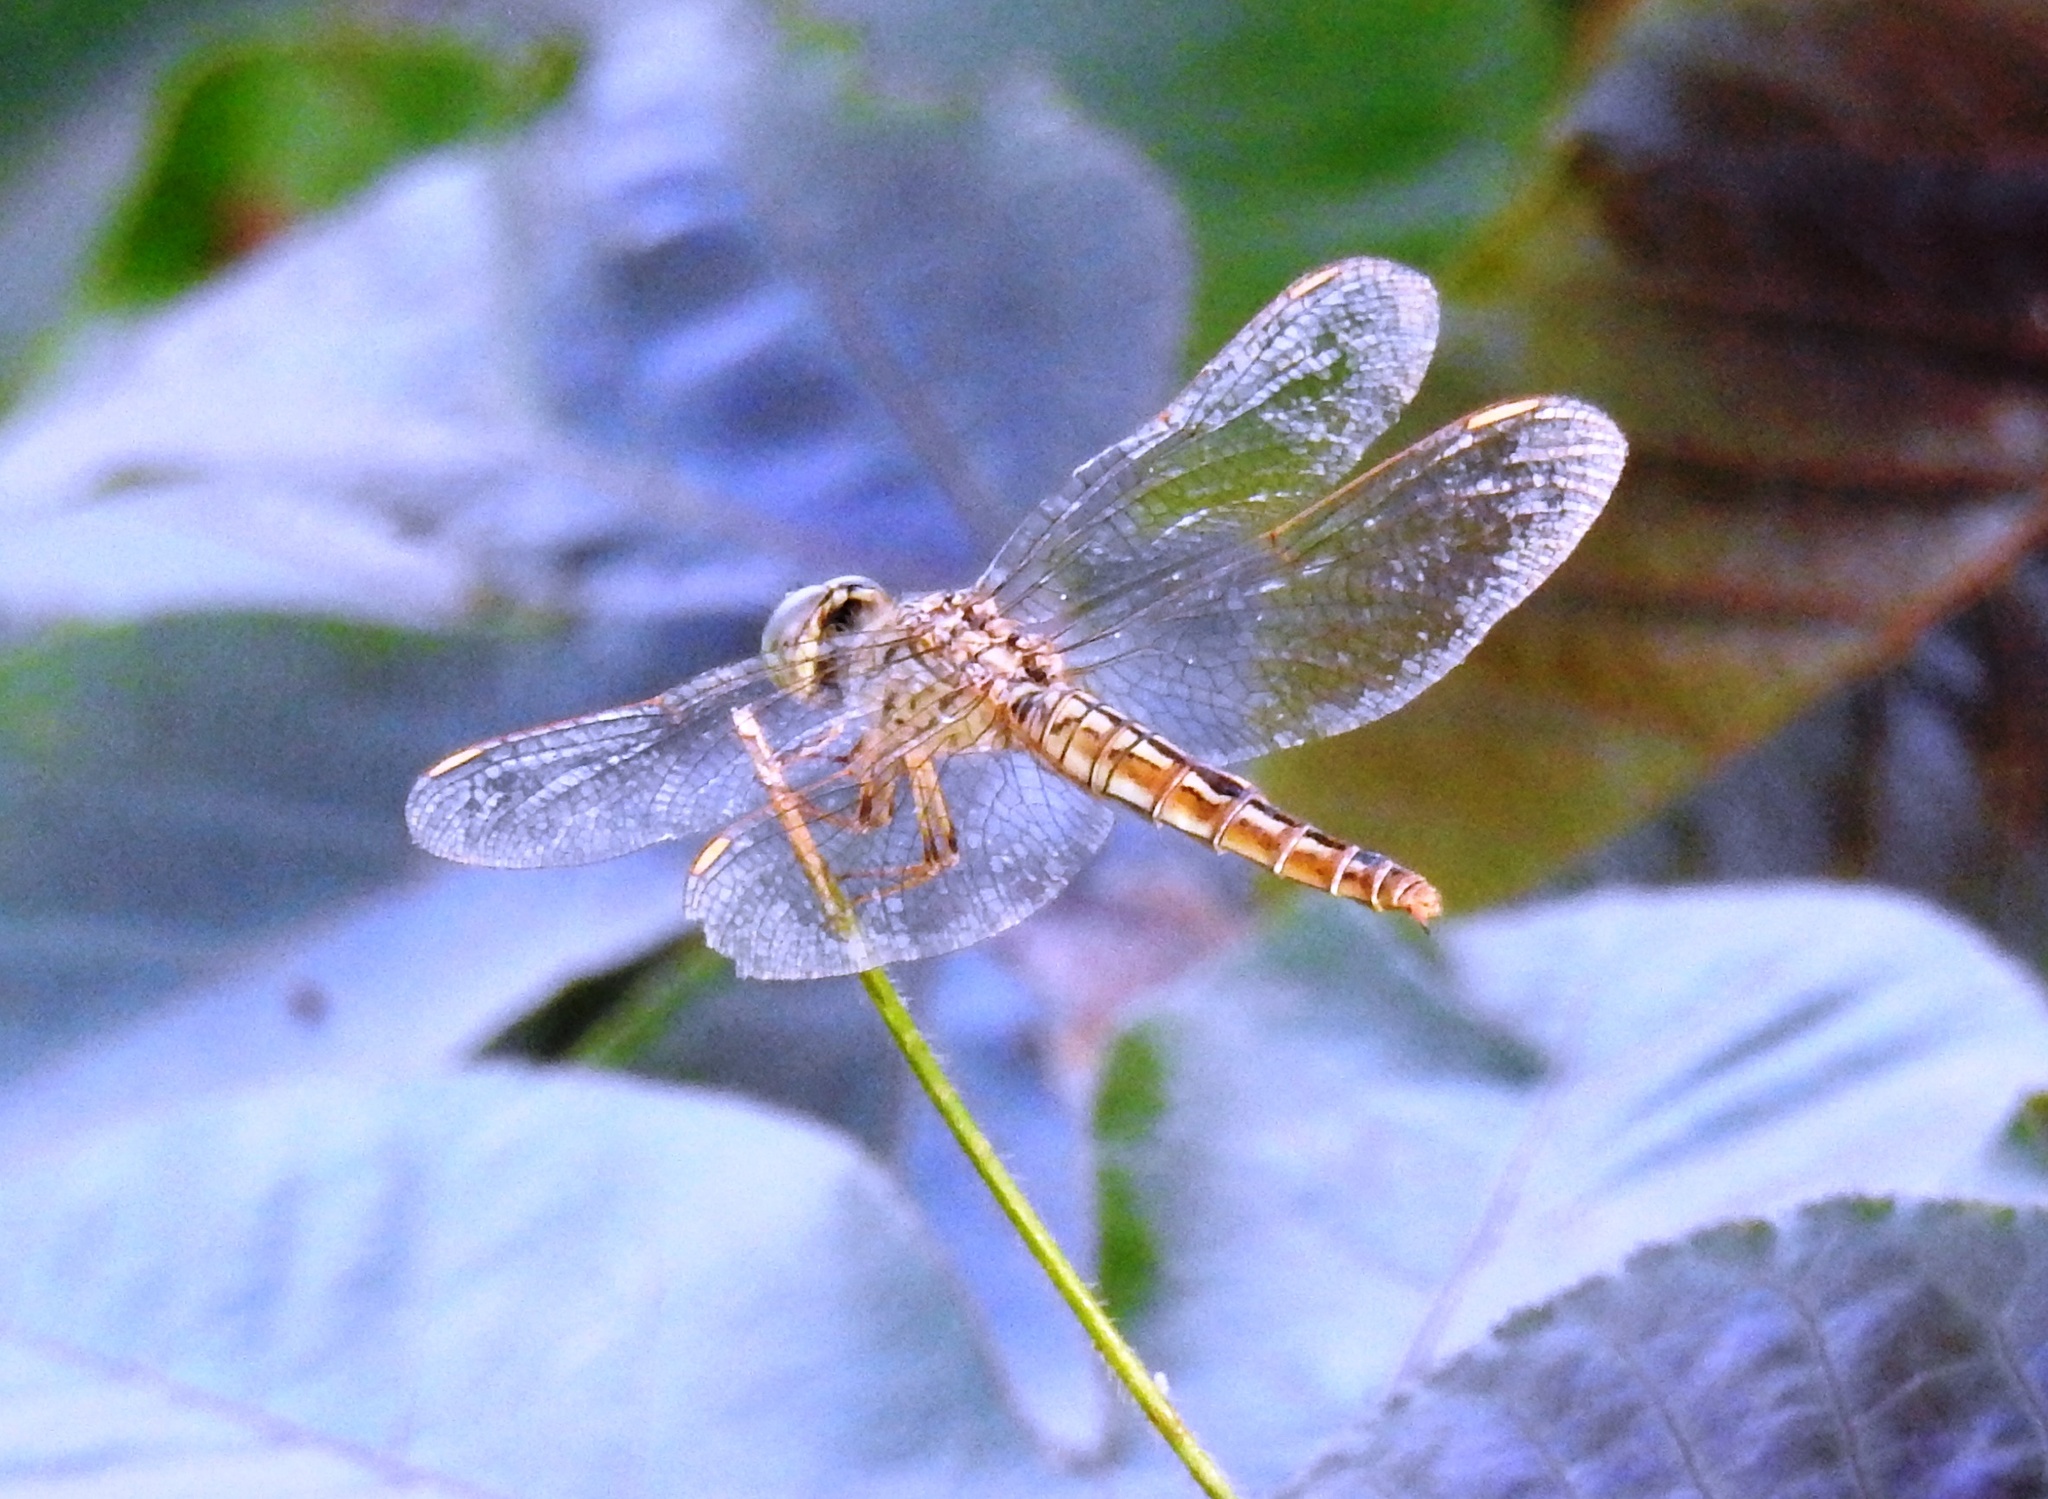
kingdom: Animalia
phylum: Arthropoda
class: Insecta
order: Odonata
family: Libellulidae
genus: Brachythemis
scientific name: Brachythemis contaminata
